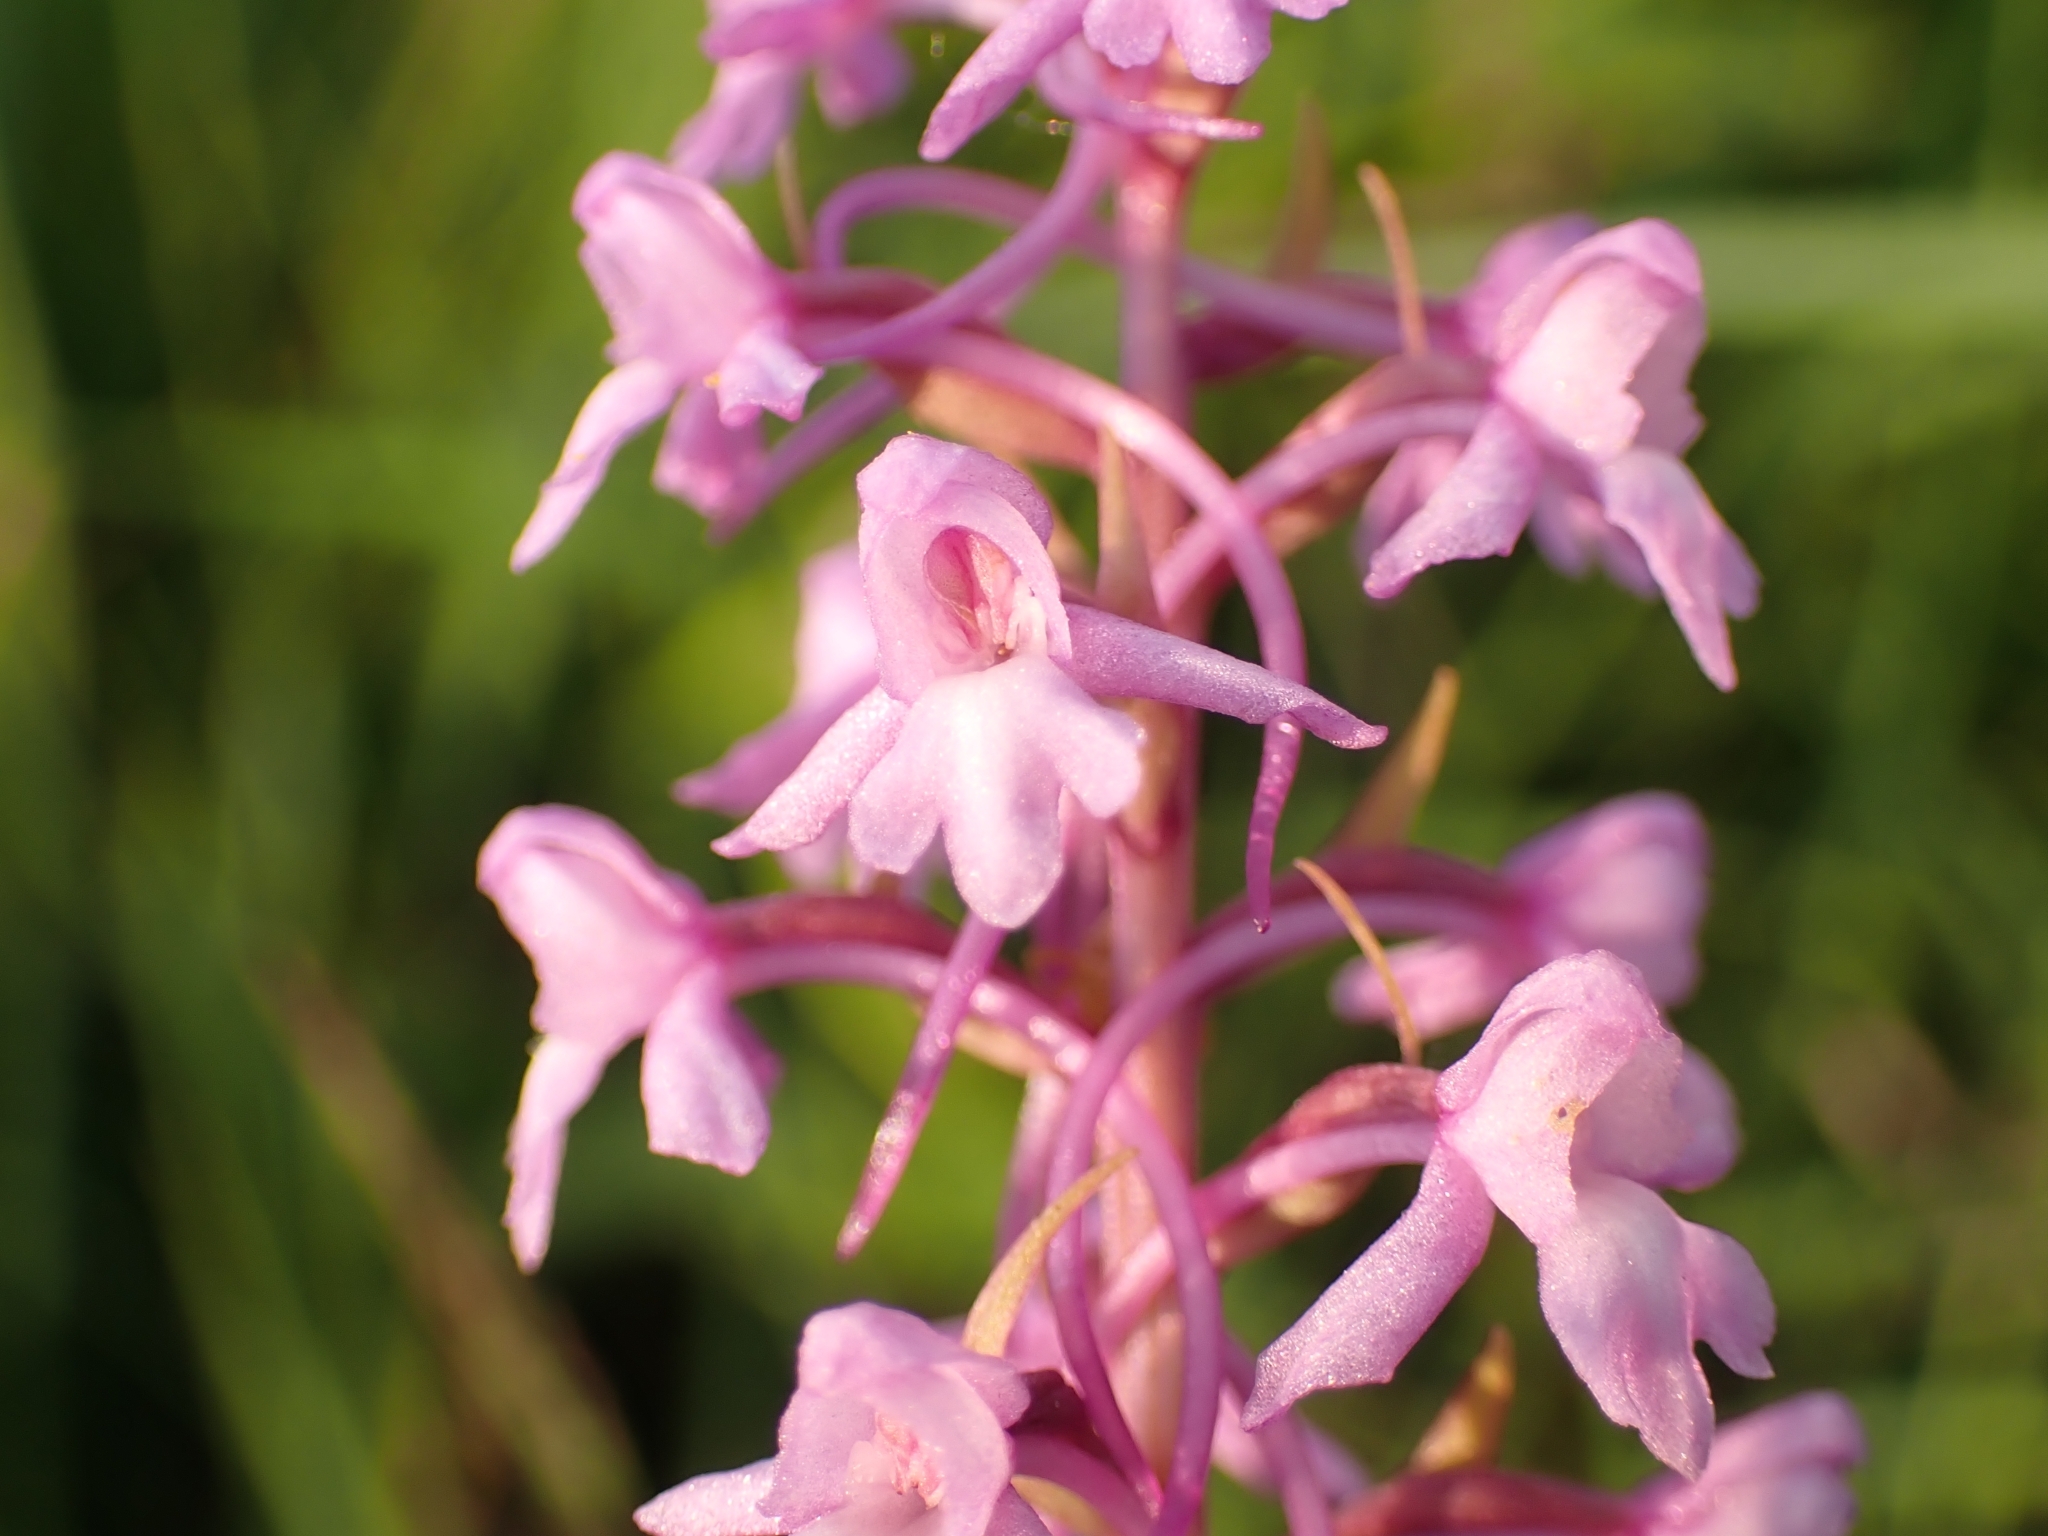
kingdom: Plantae
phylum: Tracheophyta
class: Liliopsida
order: Asparagales
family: Orchidaceae
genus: Gymnadenia
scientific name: Gymnadenia conopsea
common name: Fragrant orchid
